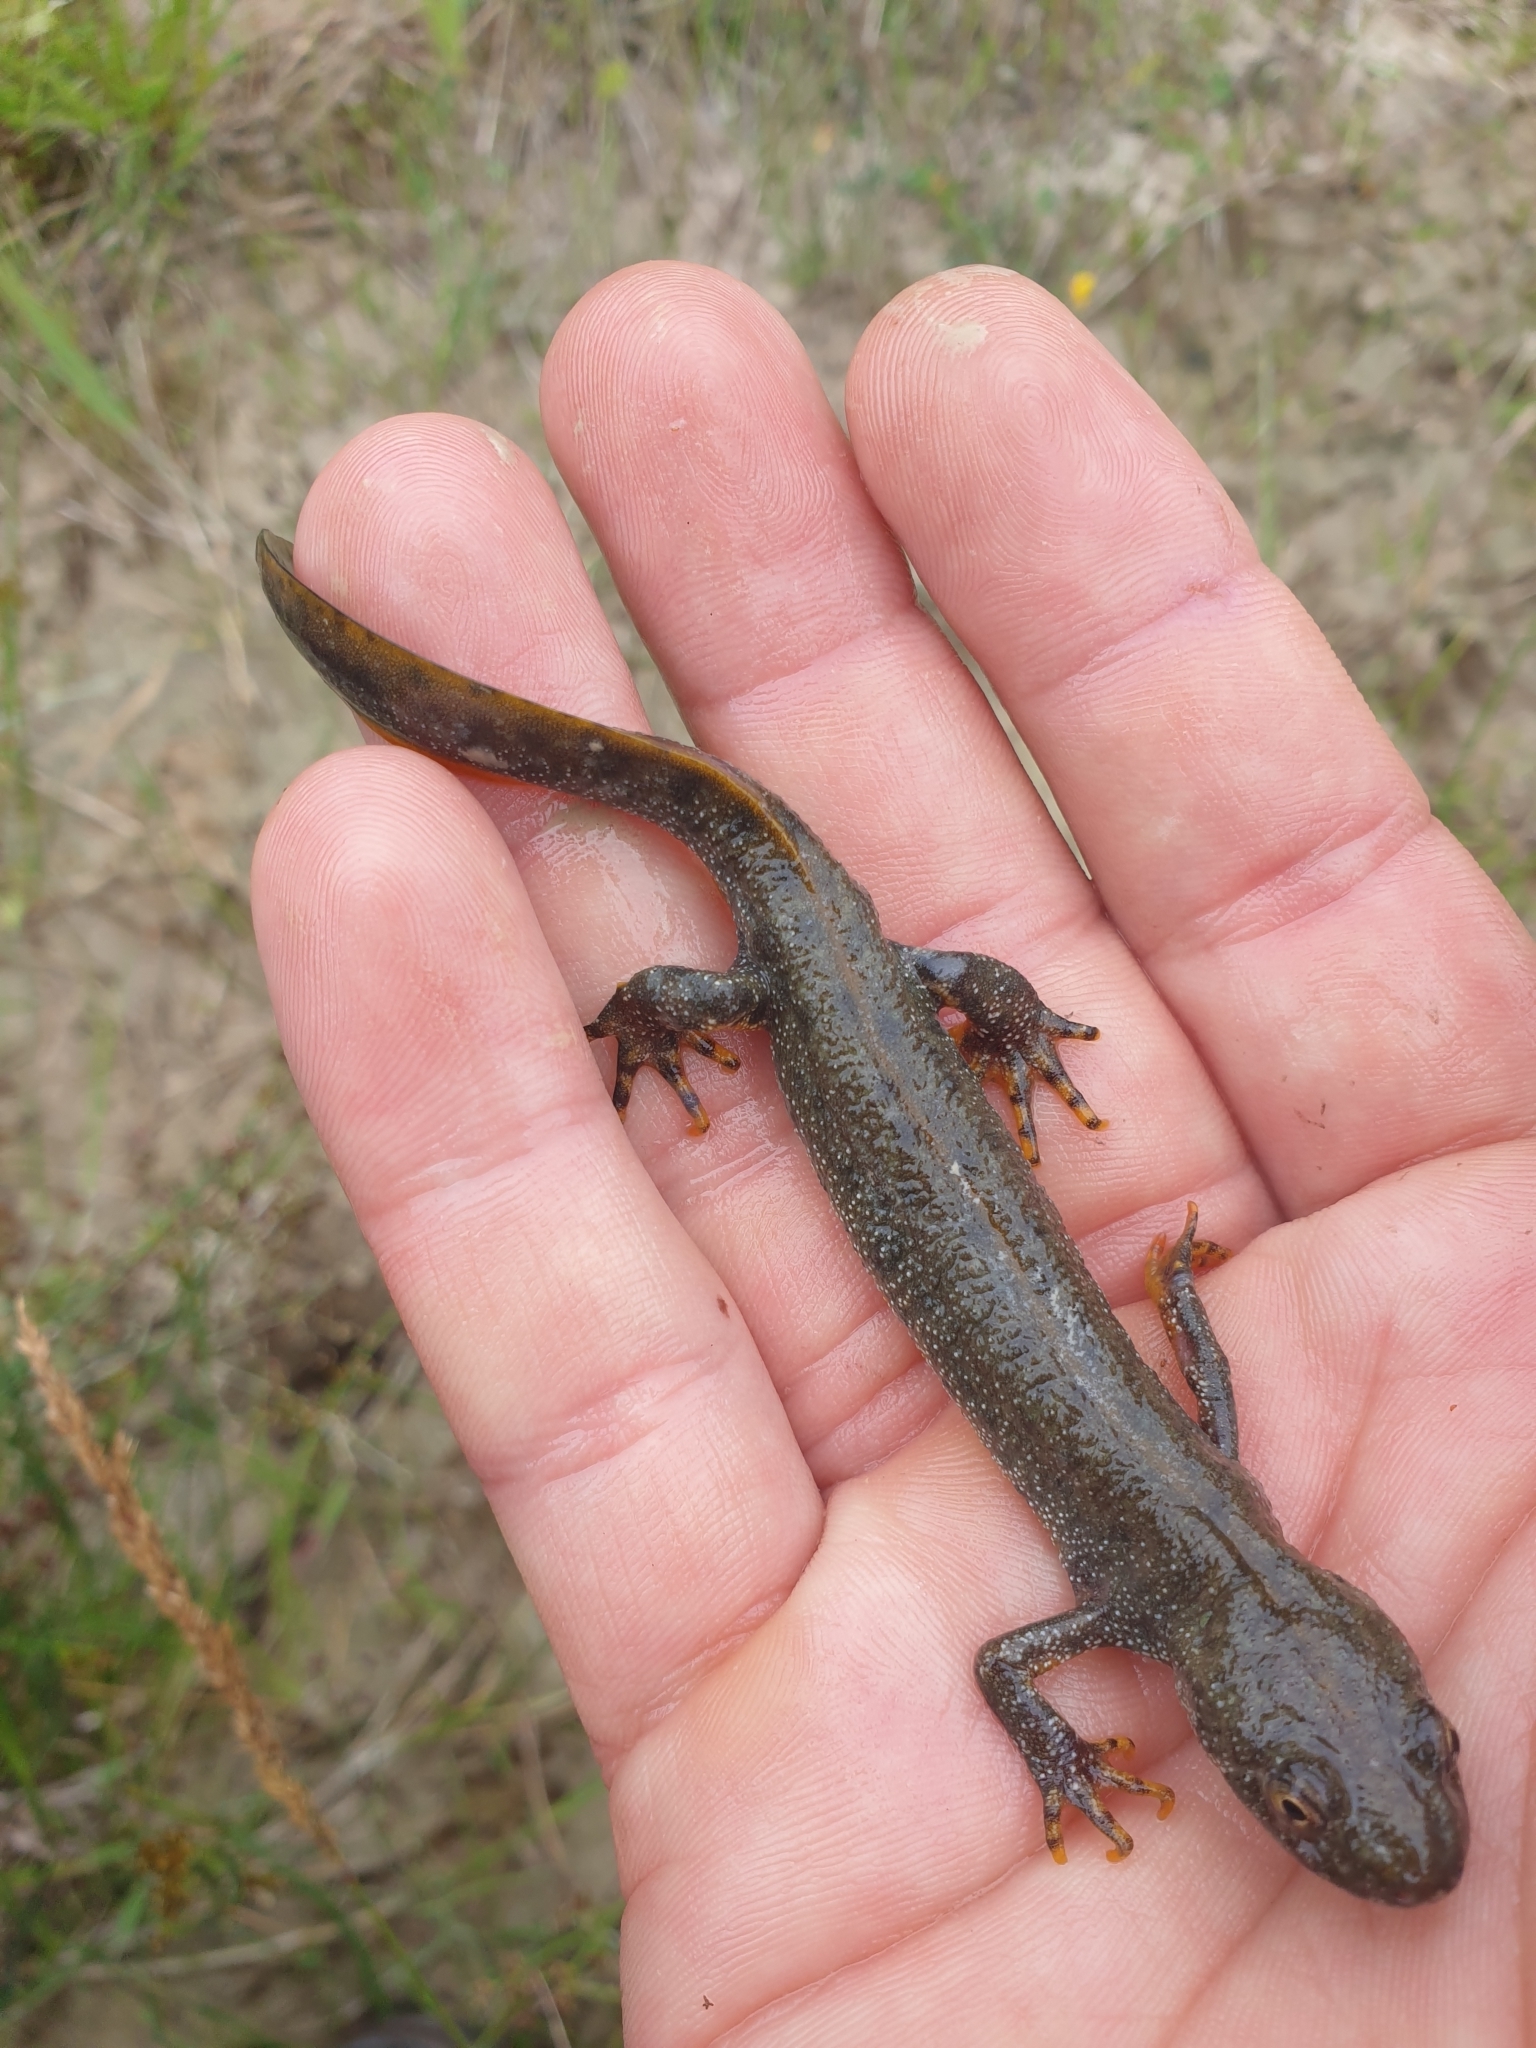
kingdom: Animalia
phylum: Chordata
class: Amphibia
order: Caudata
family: Salamandridae
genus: Triturus
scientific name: Triturus cristatus
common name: Crested newt
